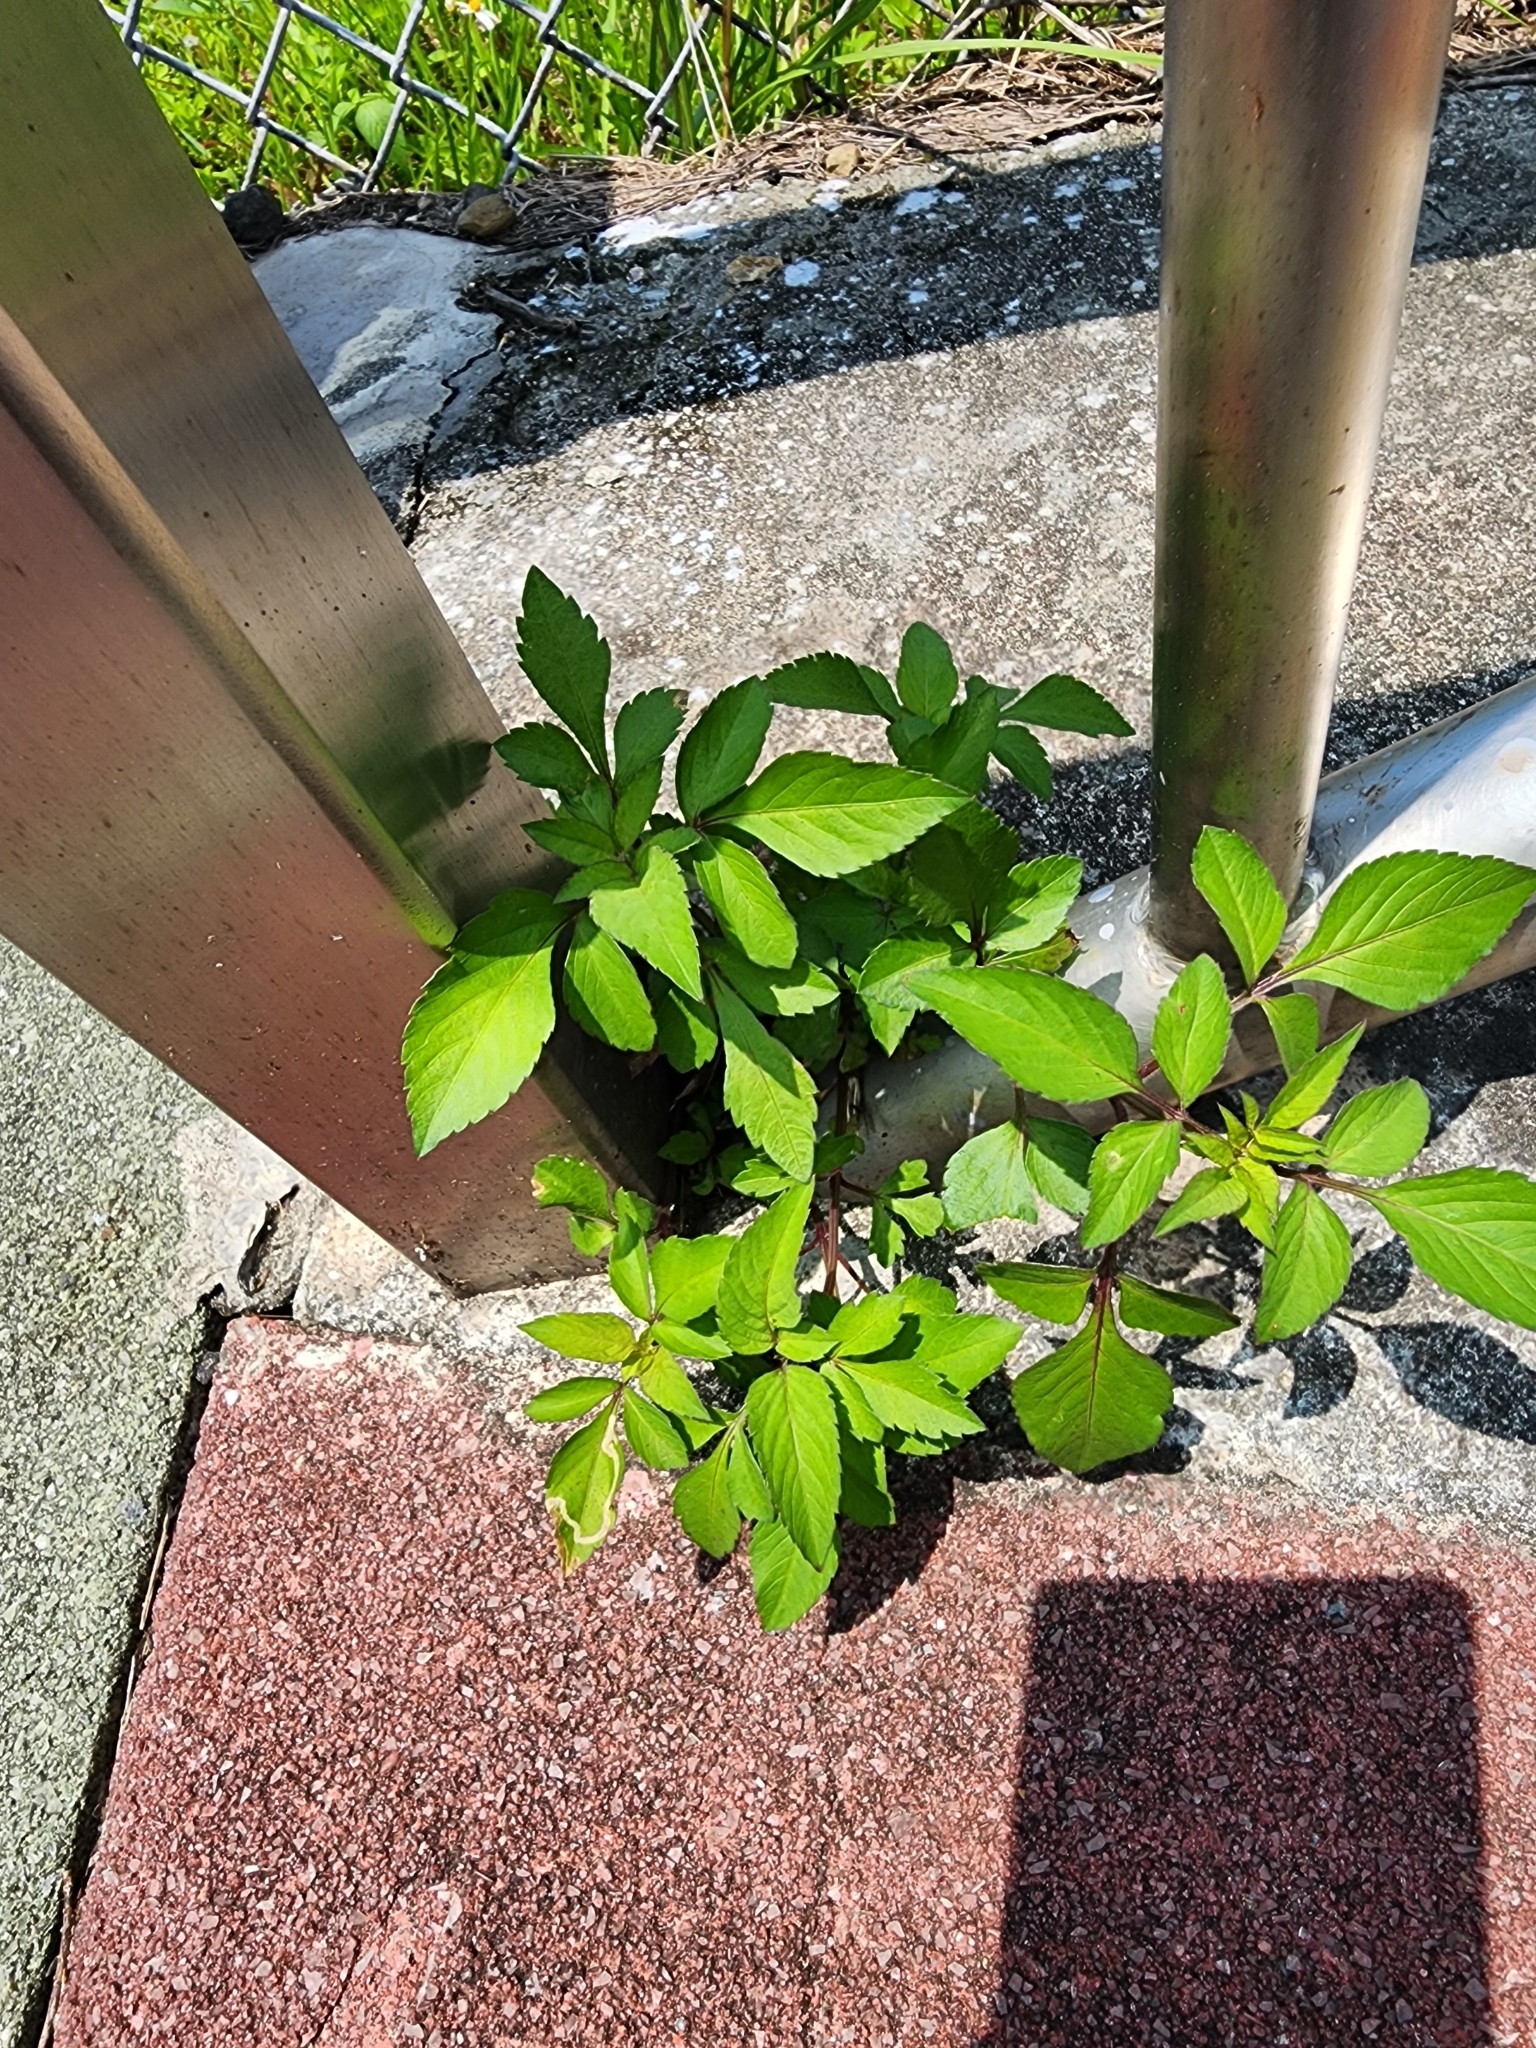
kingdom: Plantae
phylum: Tracheophyta
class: Magnoliopsida
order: Asterales
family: Asteraceae
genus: Bidens
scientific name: Bidens alba
